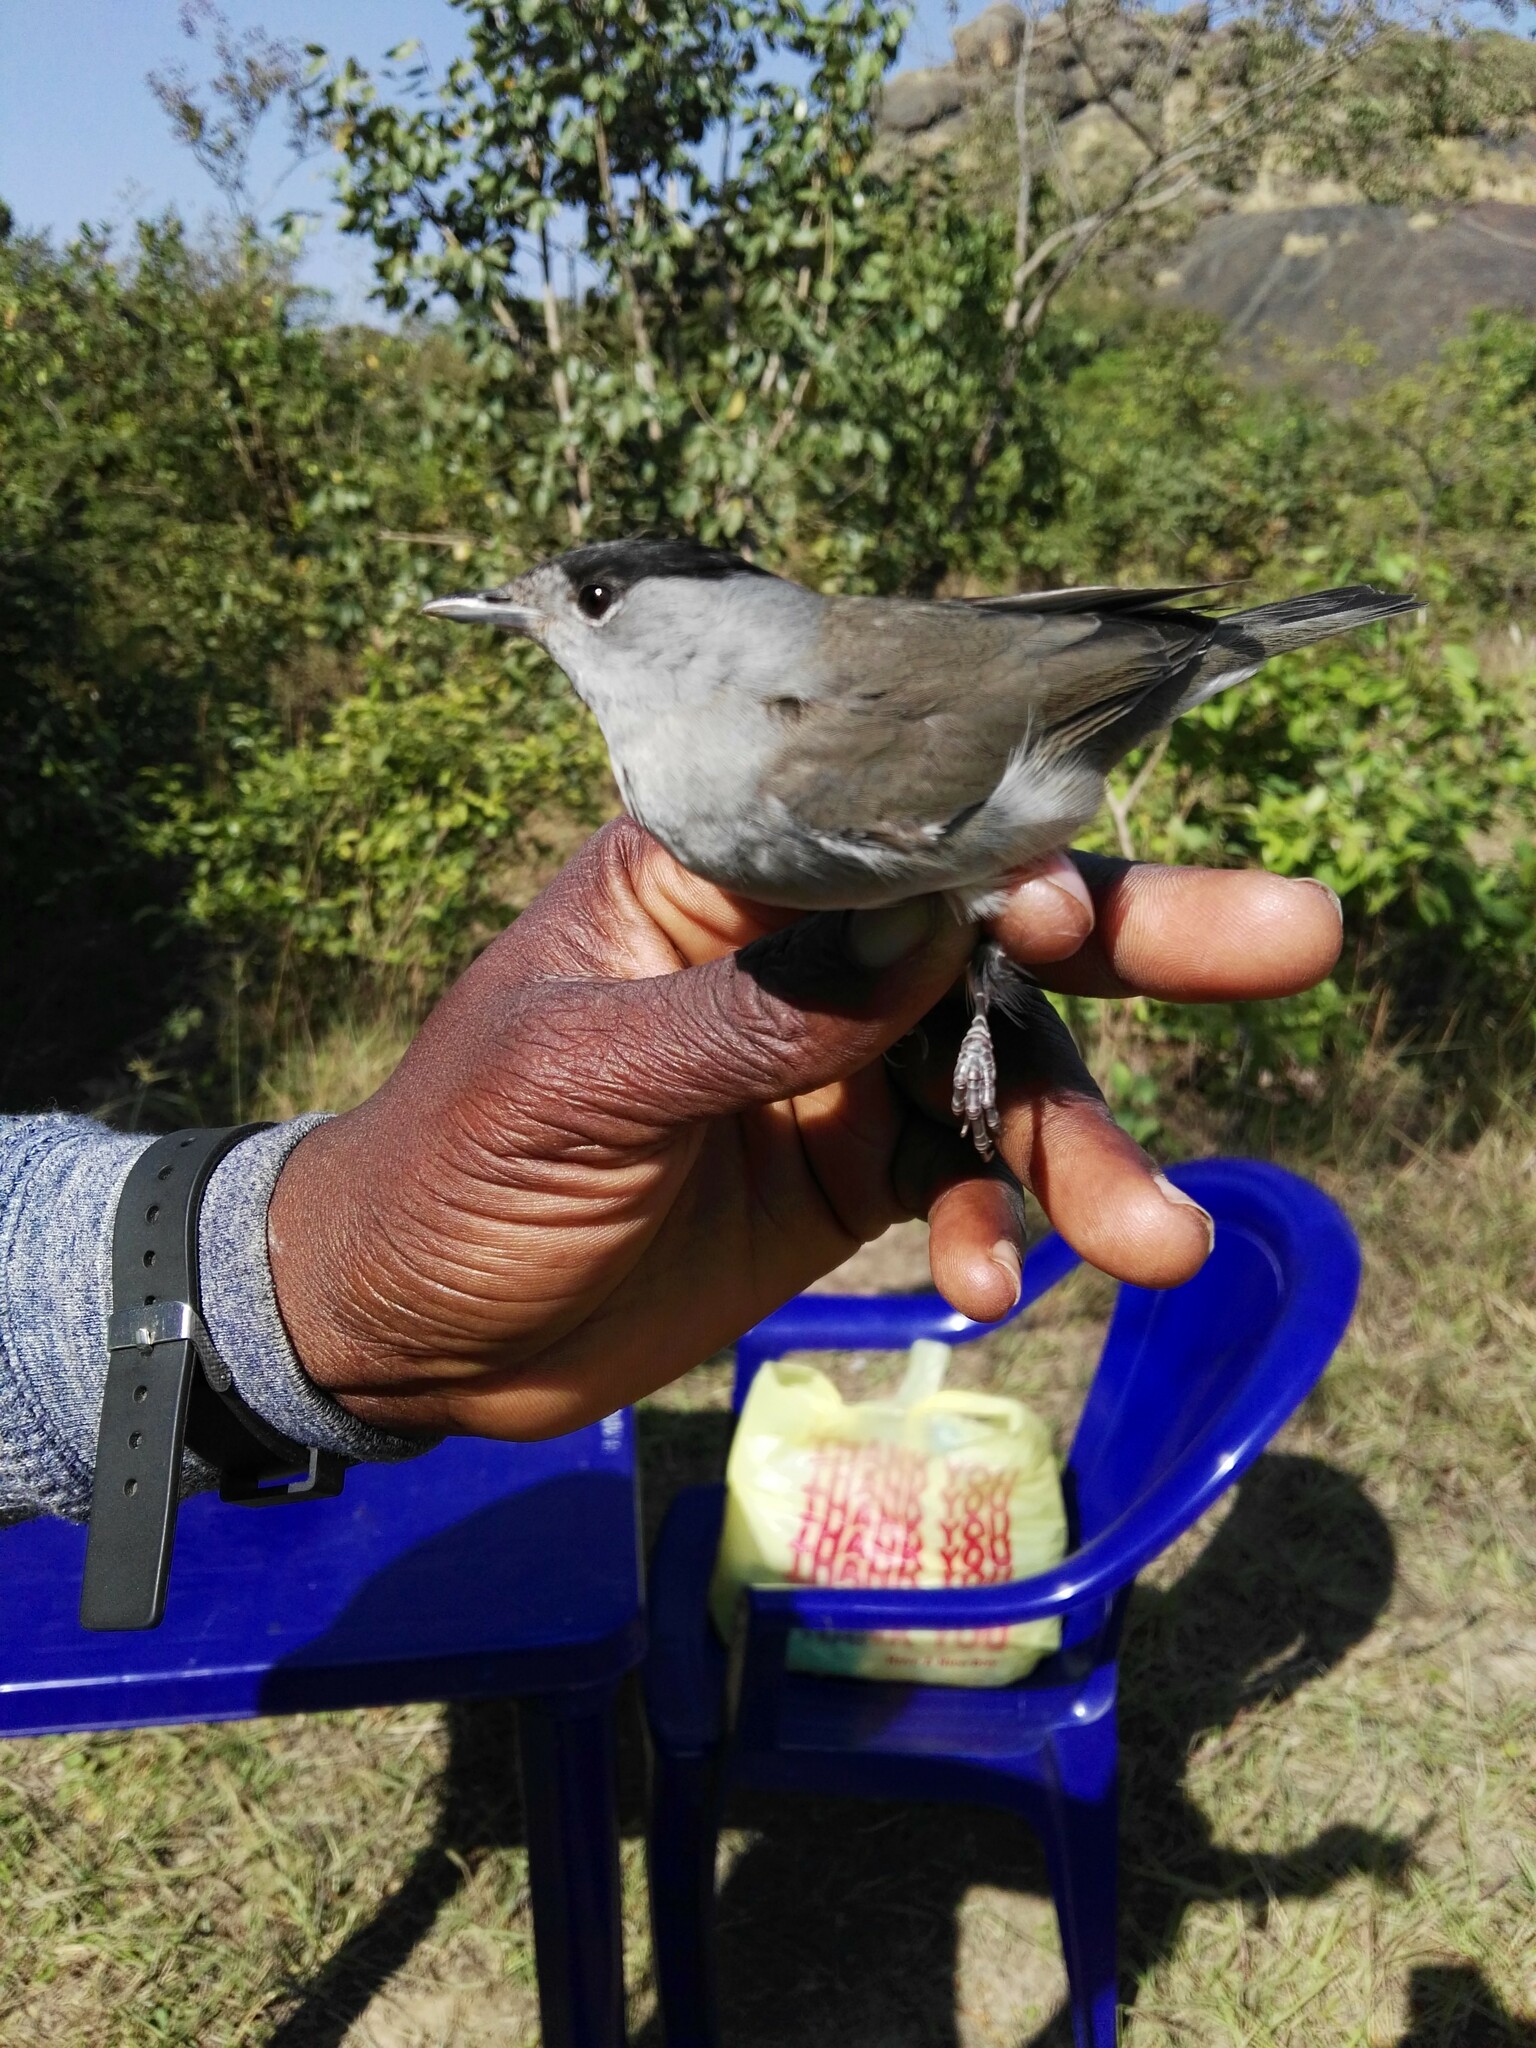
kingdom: Animalia
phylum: Chordata
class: Aves
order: Passeriformes
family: Sylviidae
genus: Sylvia
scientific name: Sylvia atricapilla
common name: Eurasian blackcap
